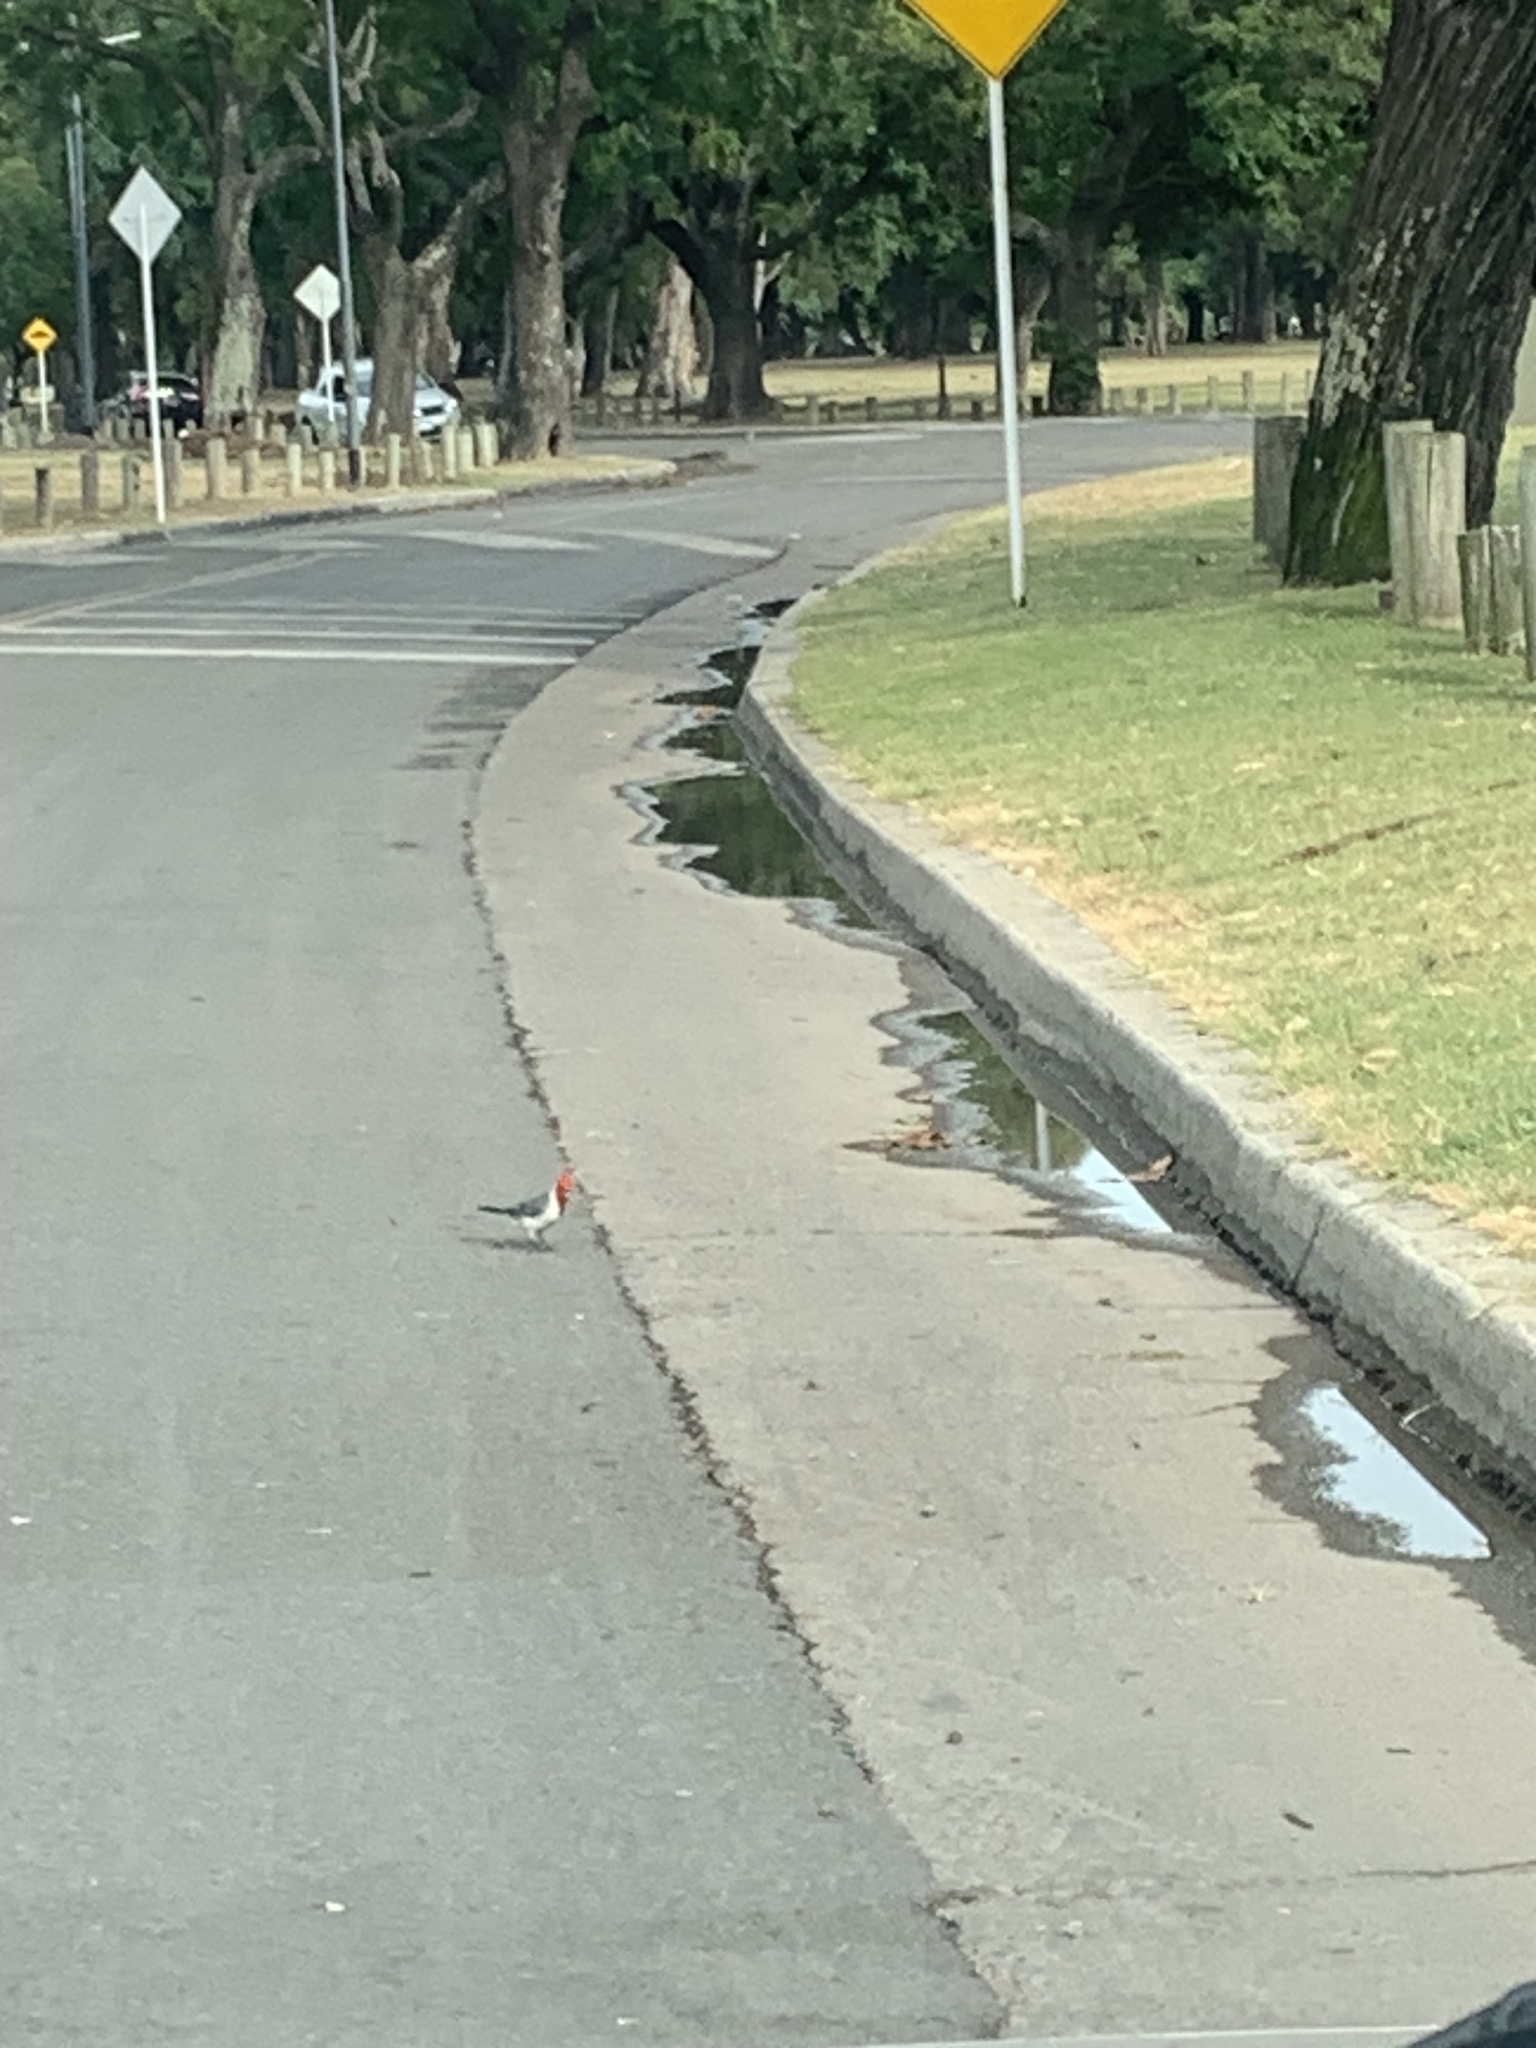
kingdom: Animalia
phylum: Chordata
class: Aves
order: Passeriformes
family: Thraupidae
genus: Paroaria
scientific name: Paroaria coronata
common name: Red-crested cardinal
